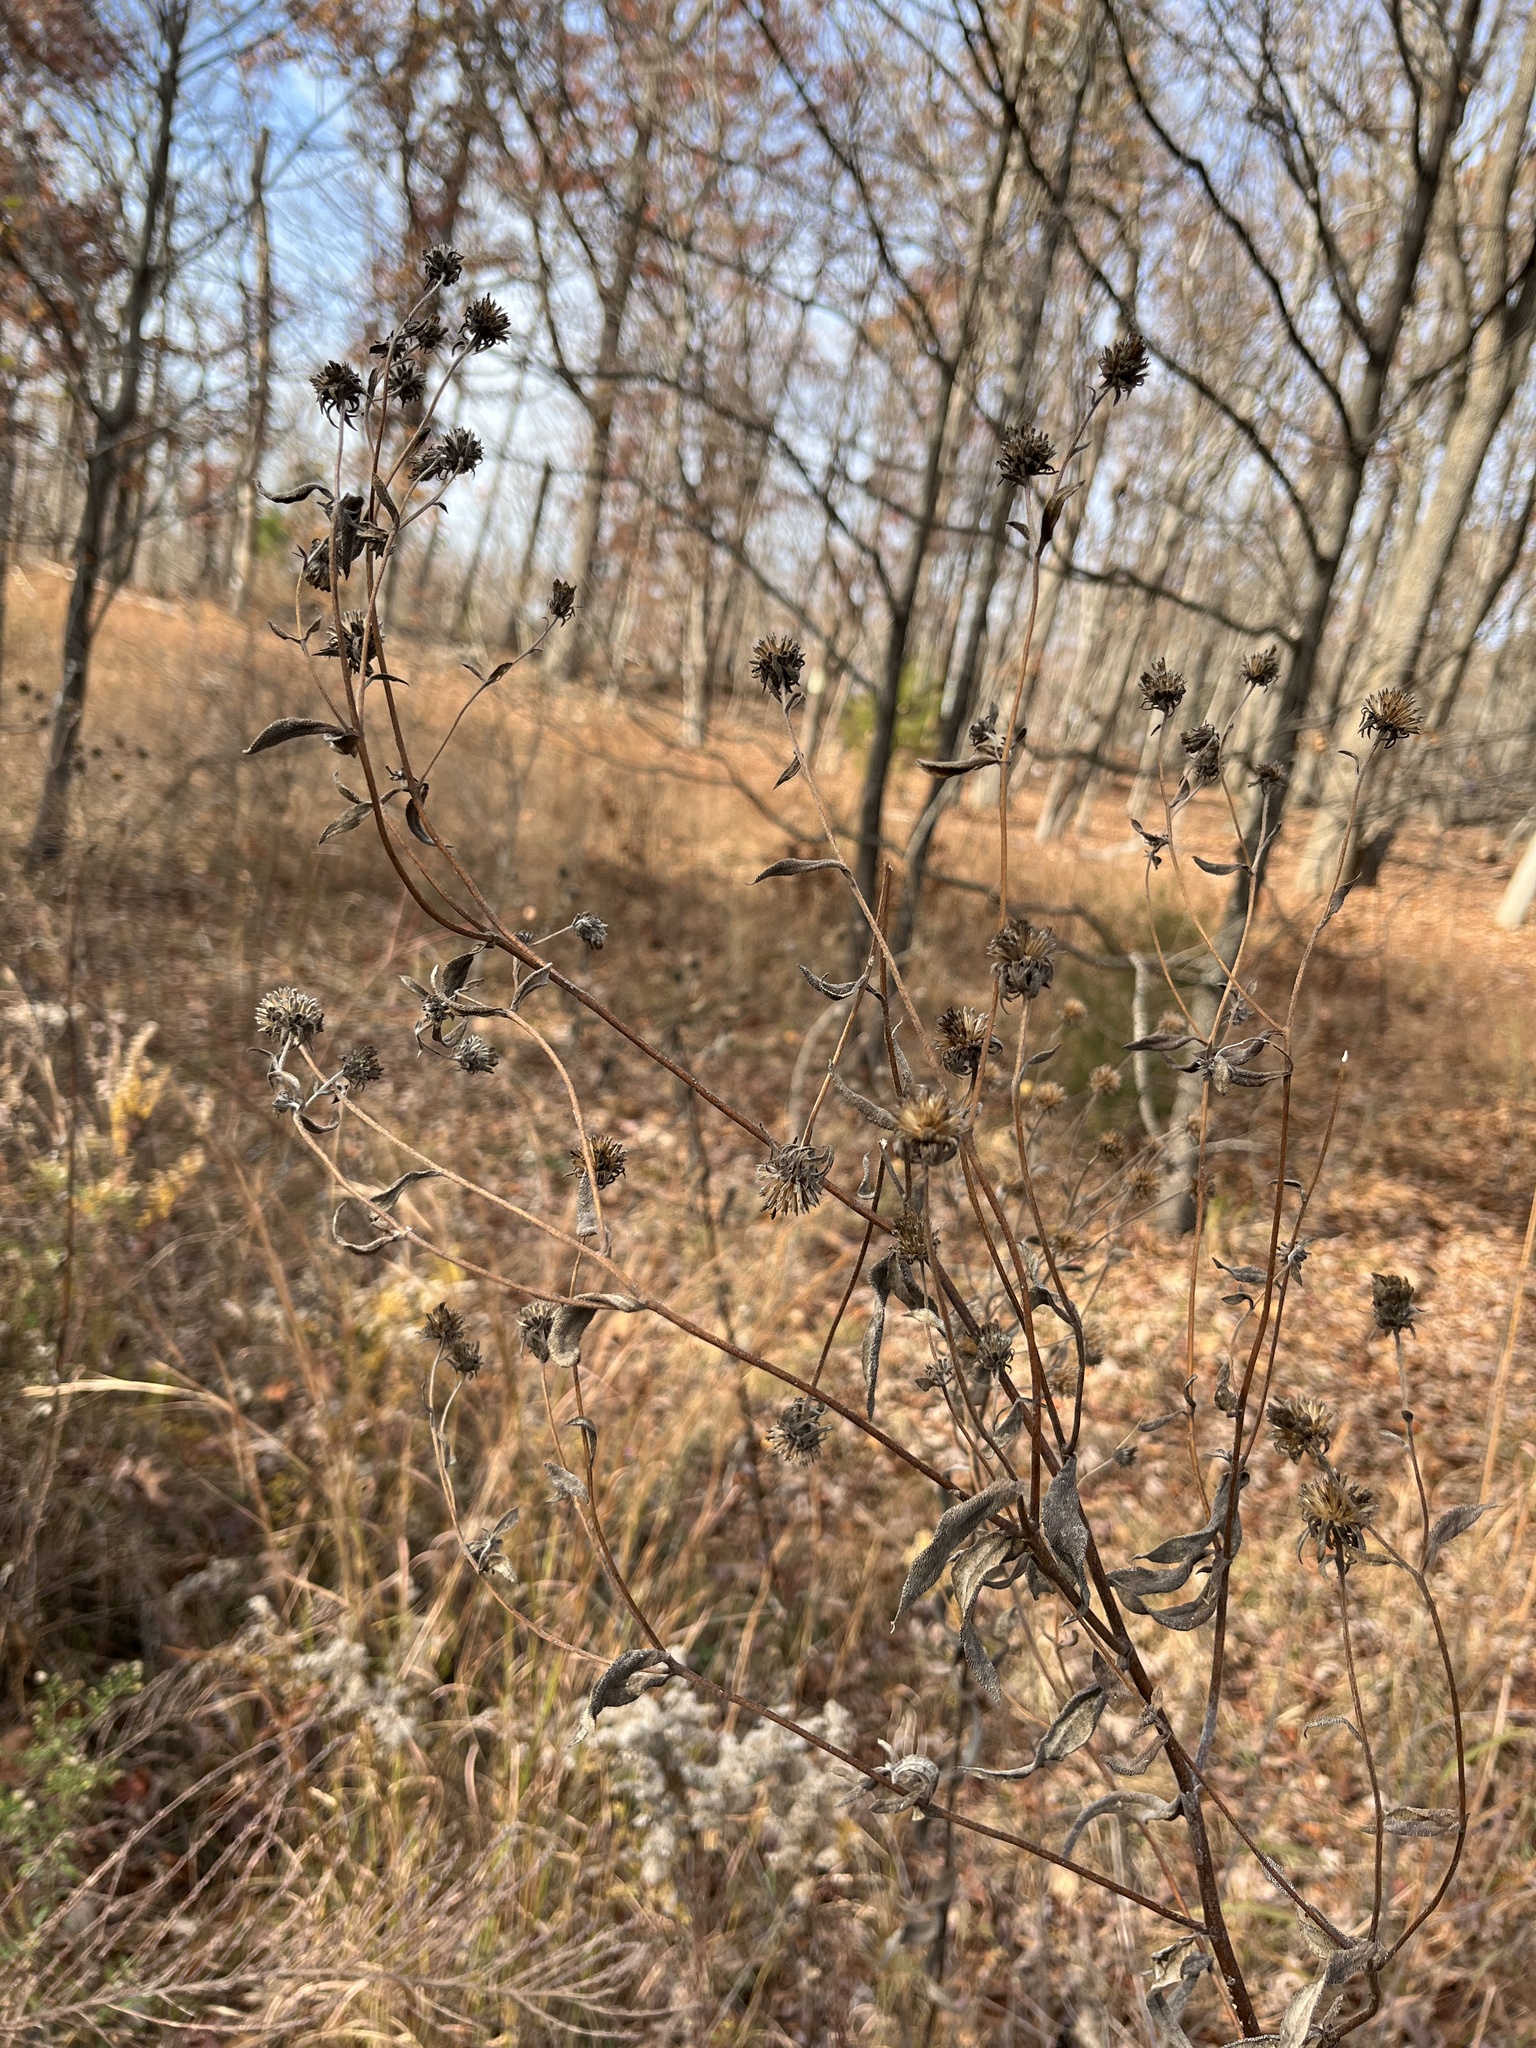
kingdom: Plantae
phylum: Tracheophyta
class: Magnoliopsida
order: Asterales
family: Asteraceae
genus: Helianthus
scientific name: Helianthus schweinitzii
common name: Schweinitz's sunflower
